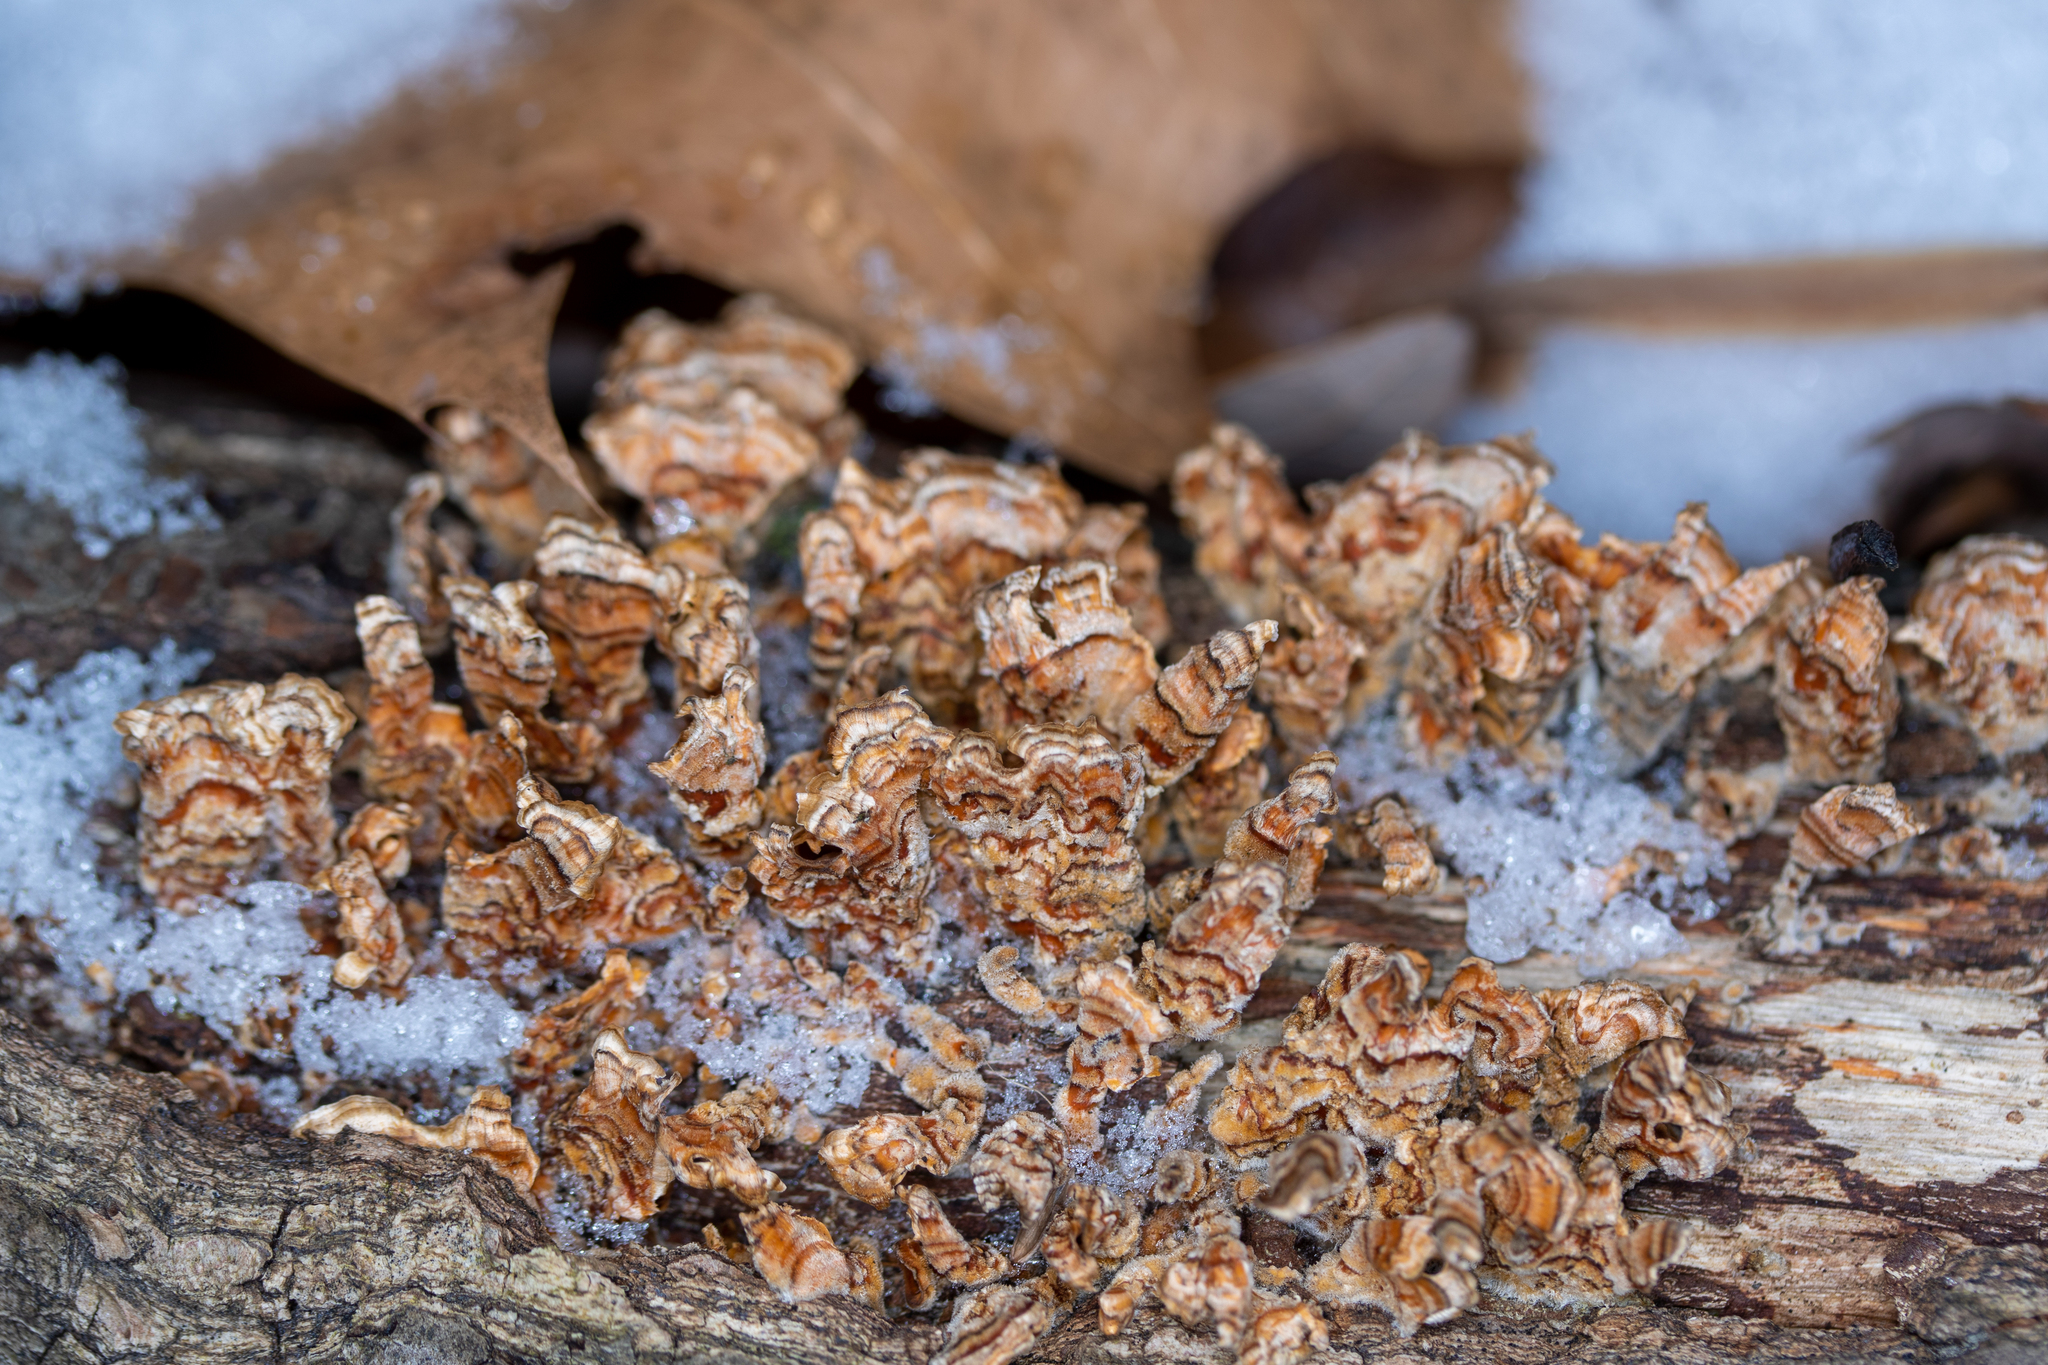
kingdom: Fungi
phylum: Basidiomycota
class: Agaricomycetes
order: Russulales
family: Stereaceae
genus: Stereum
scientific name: Stereum complicatum
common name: Crowded parchment
